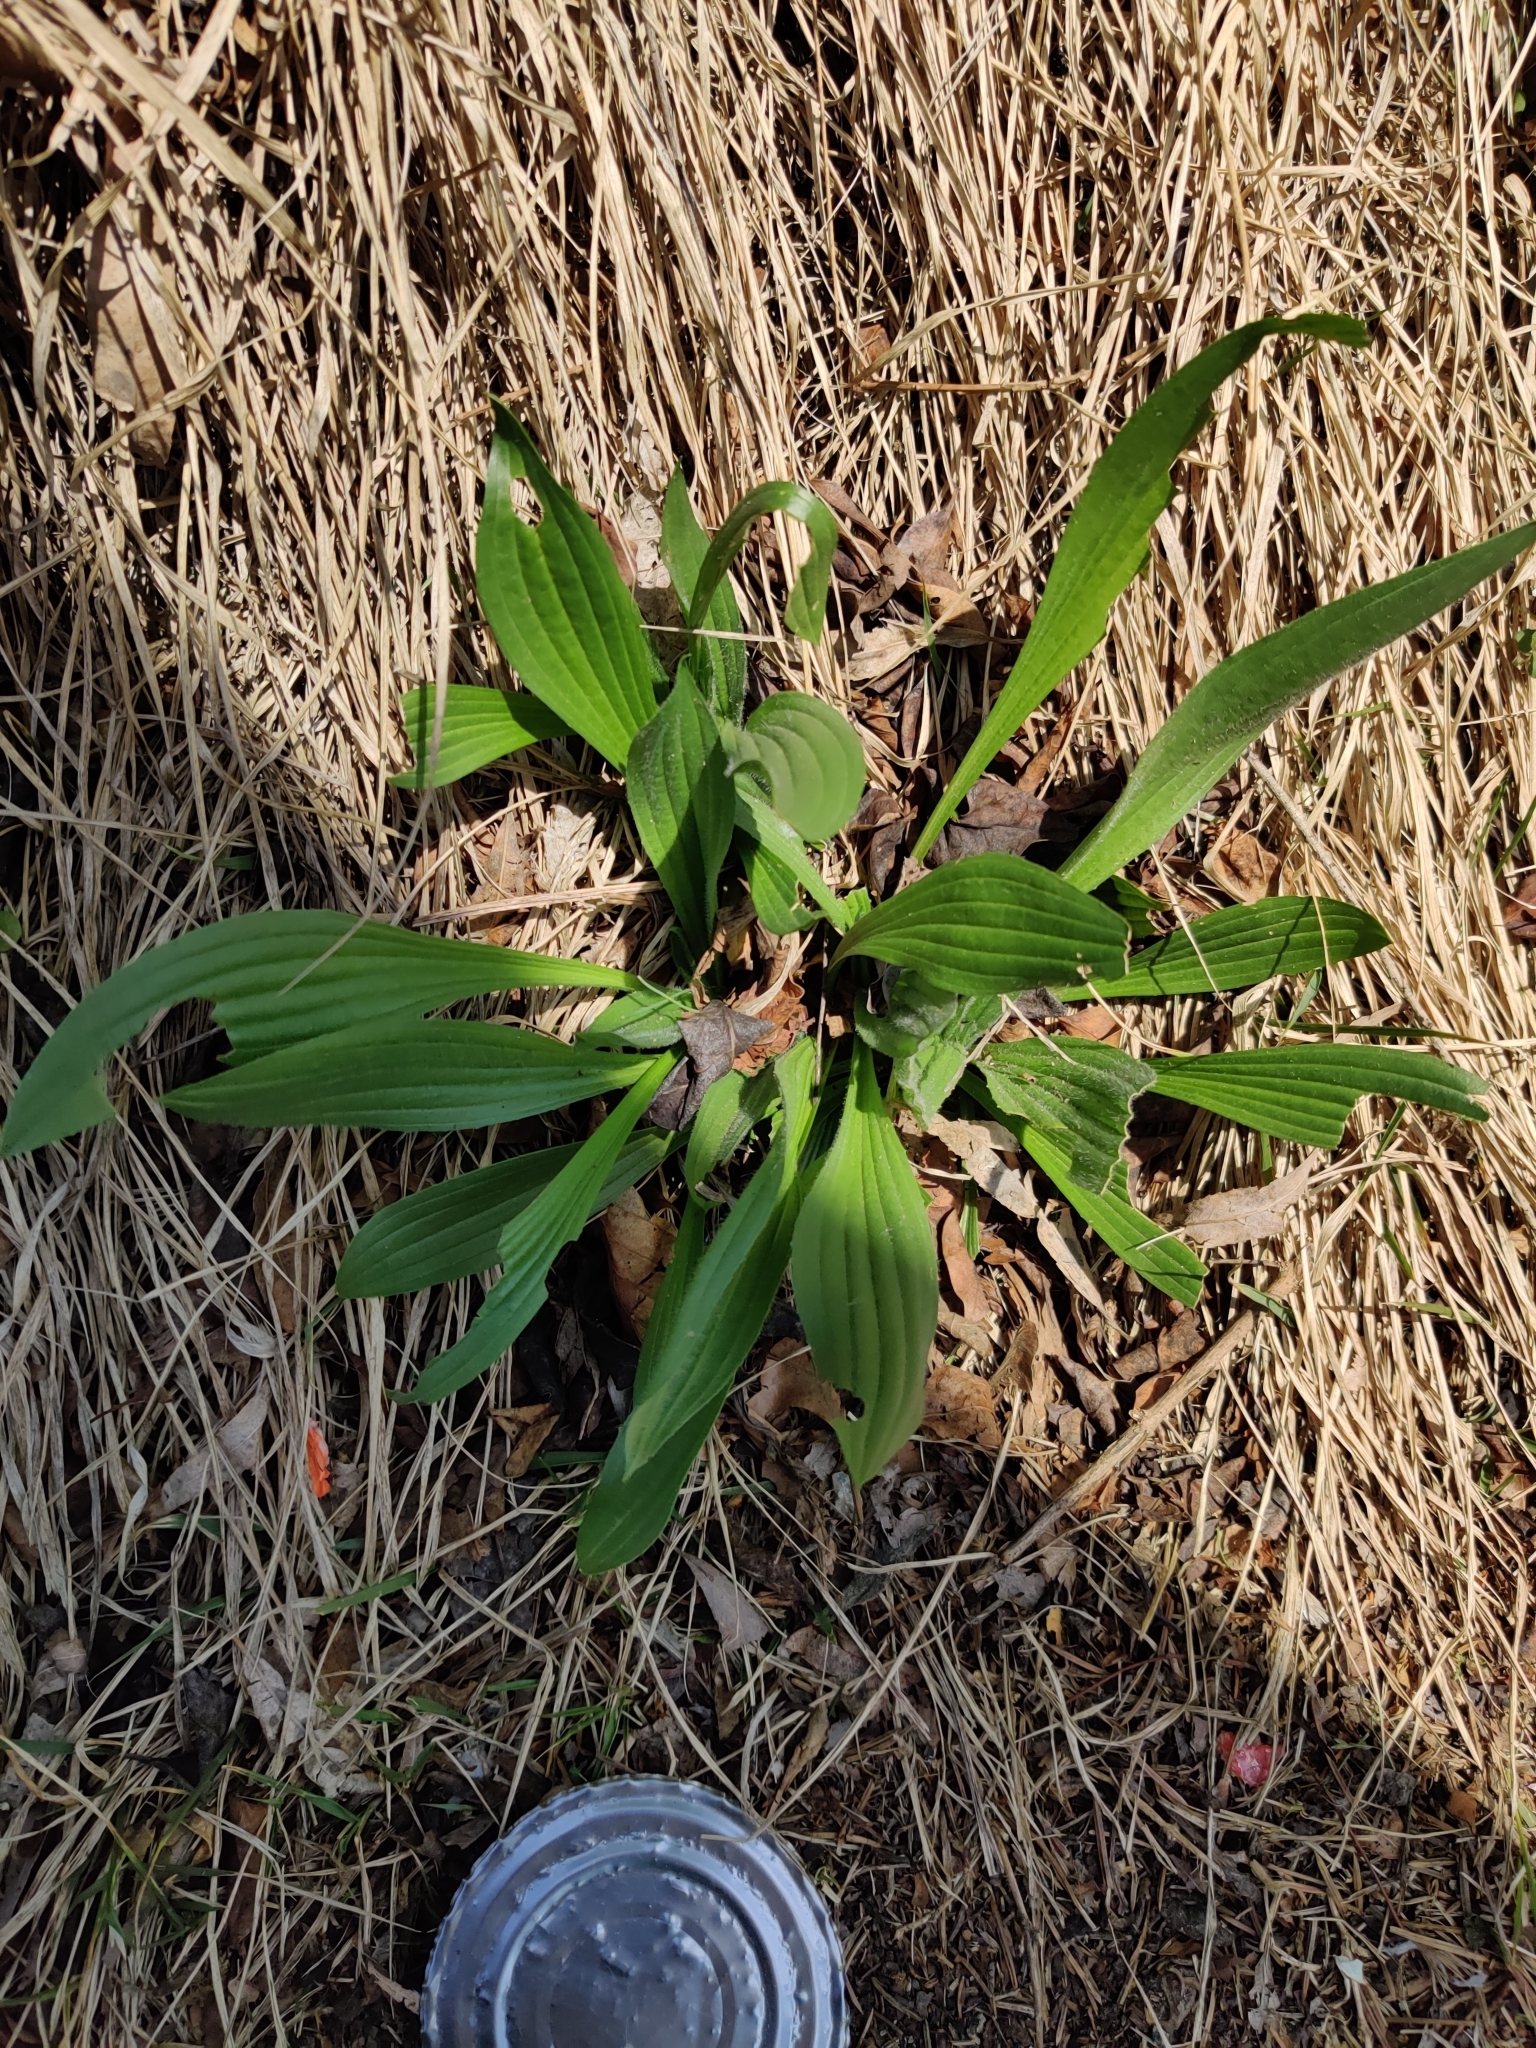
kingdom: Plantae
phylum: Tracheophyta
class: Magnoliopsida
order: Lamiales
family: Plantaginaceae
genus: Plantago
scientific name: Plantago lanceolata
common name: Ribwort plantain
